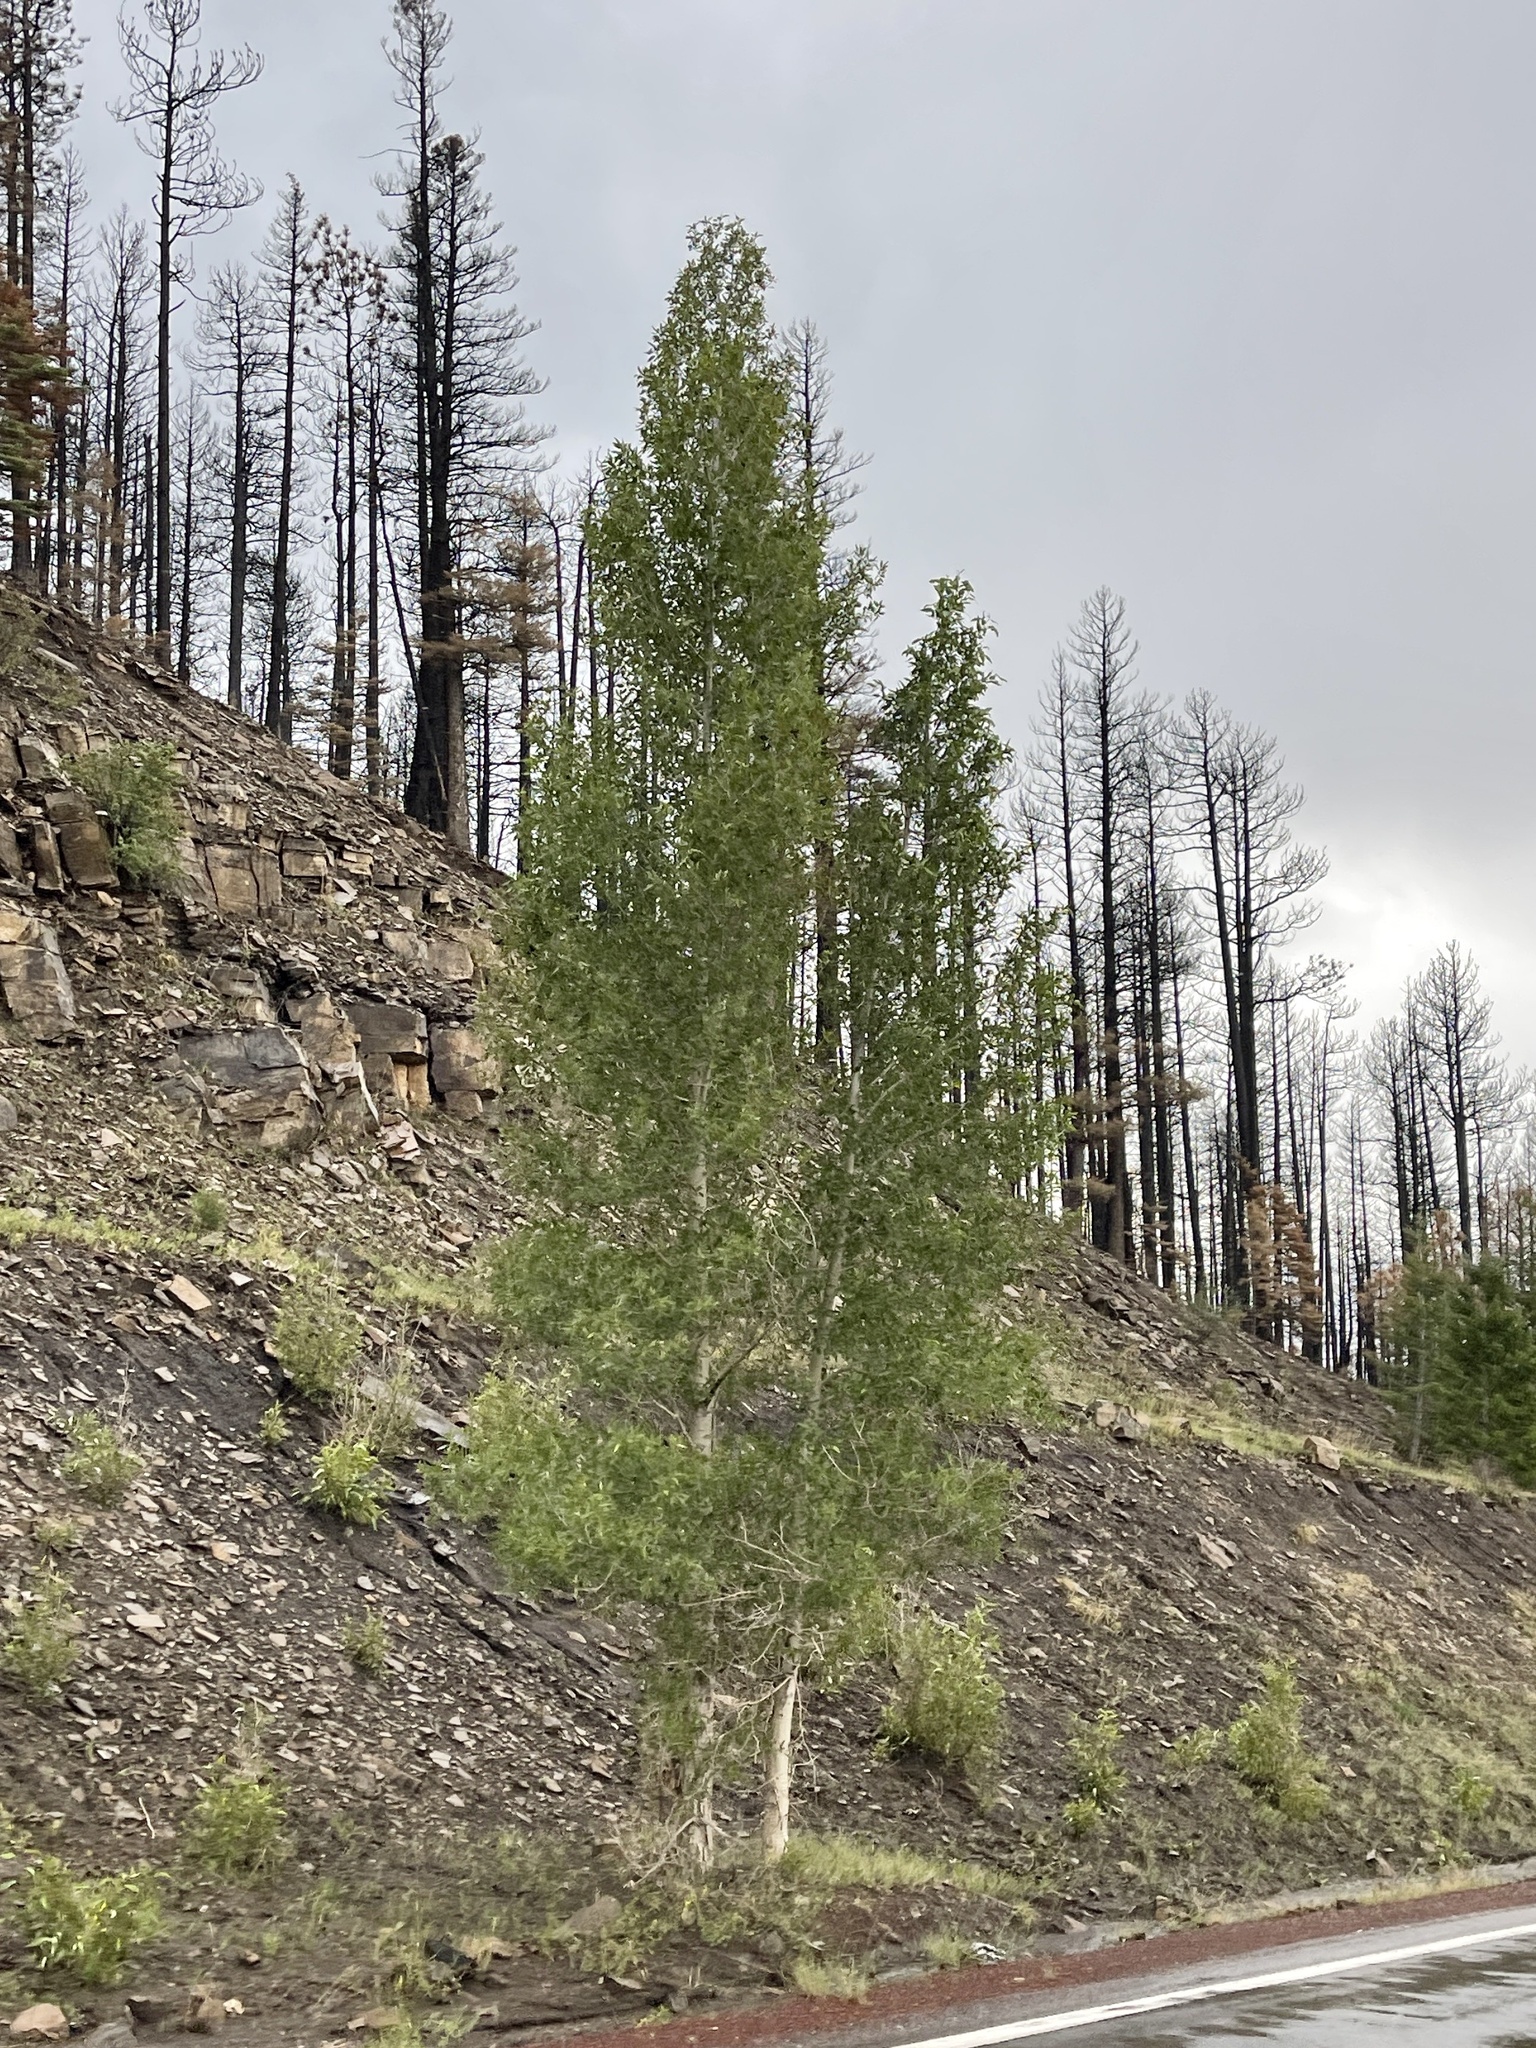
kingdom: Plantae
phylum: Tracheophyta
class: Magnoliopsida
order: Malpighiales
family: Salicaceae
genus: Populus
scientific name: Populus tremuloides
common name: Quaking aspen
